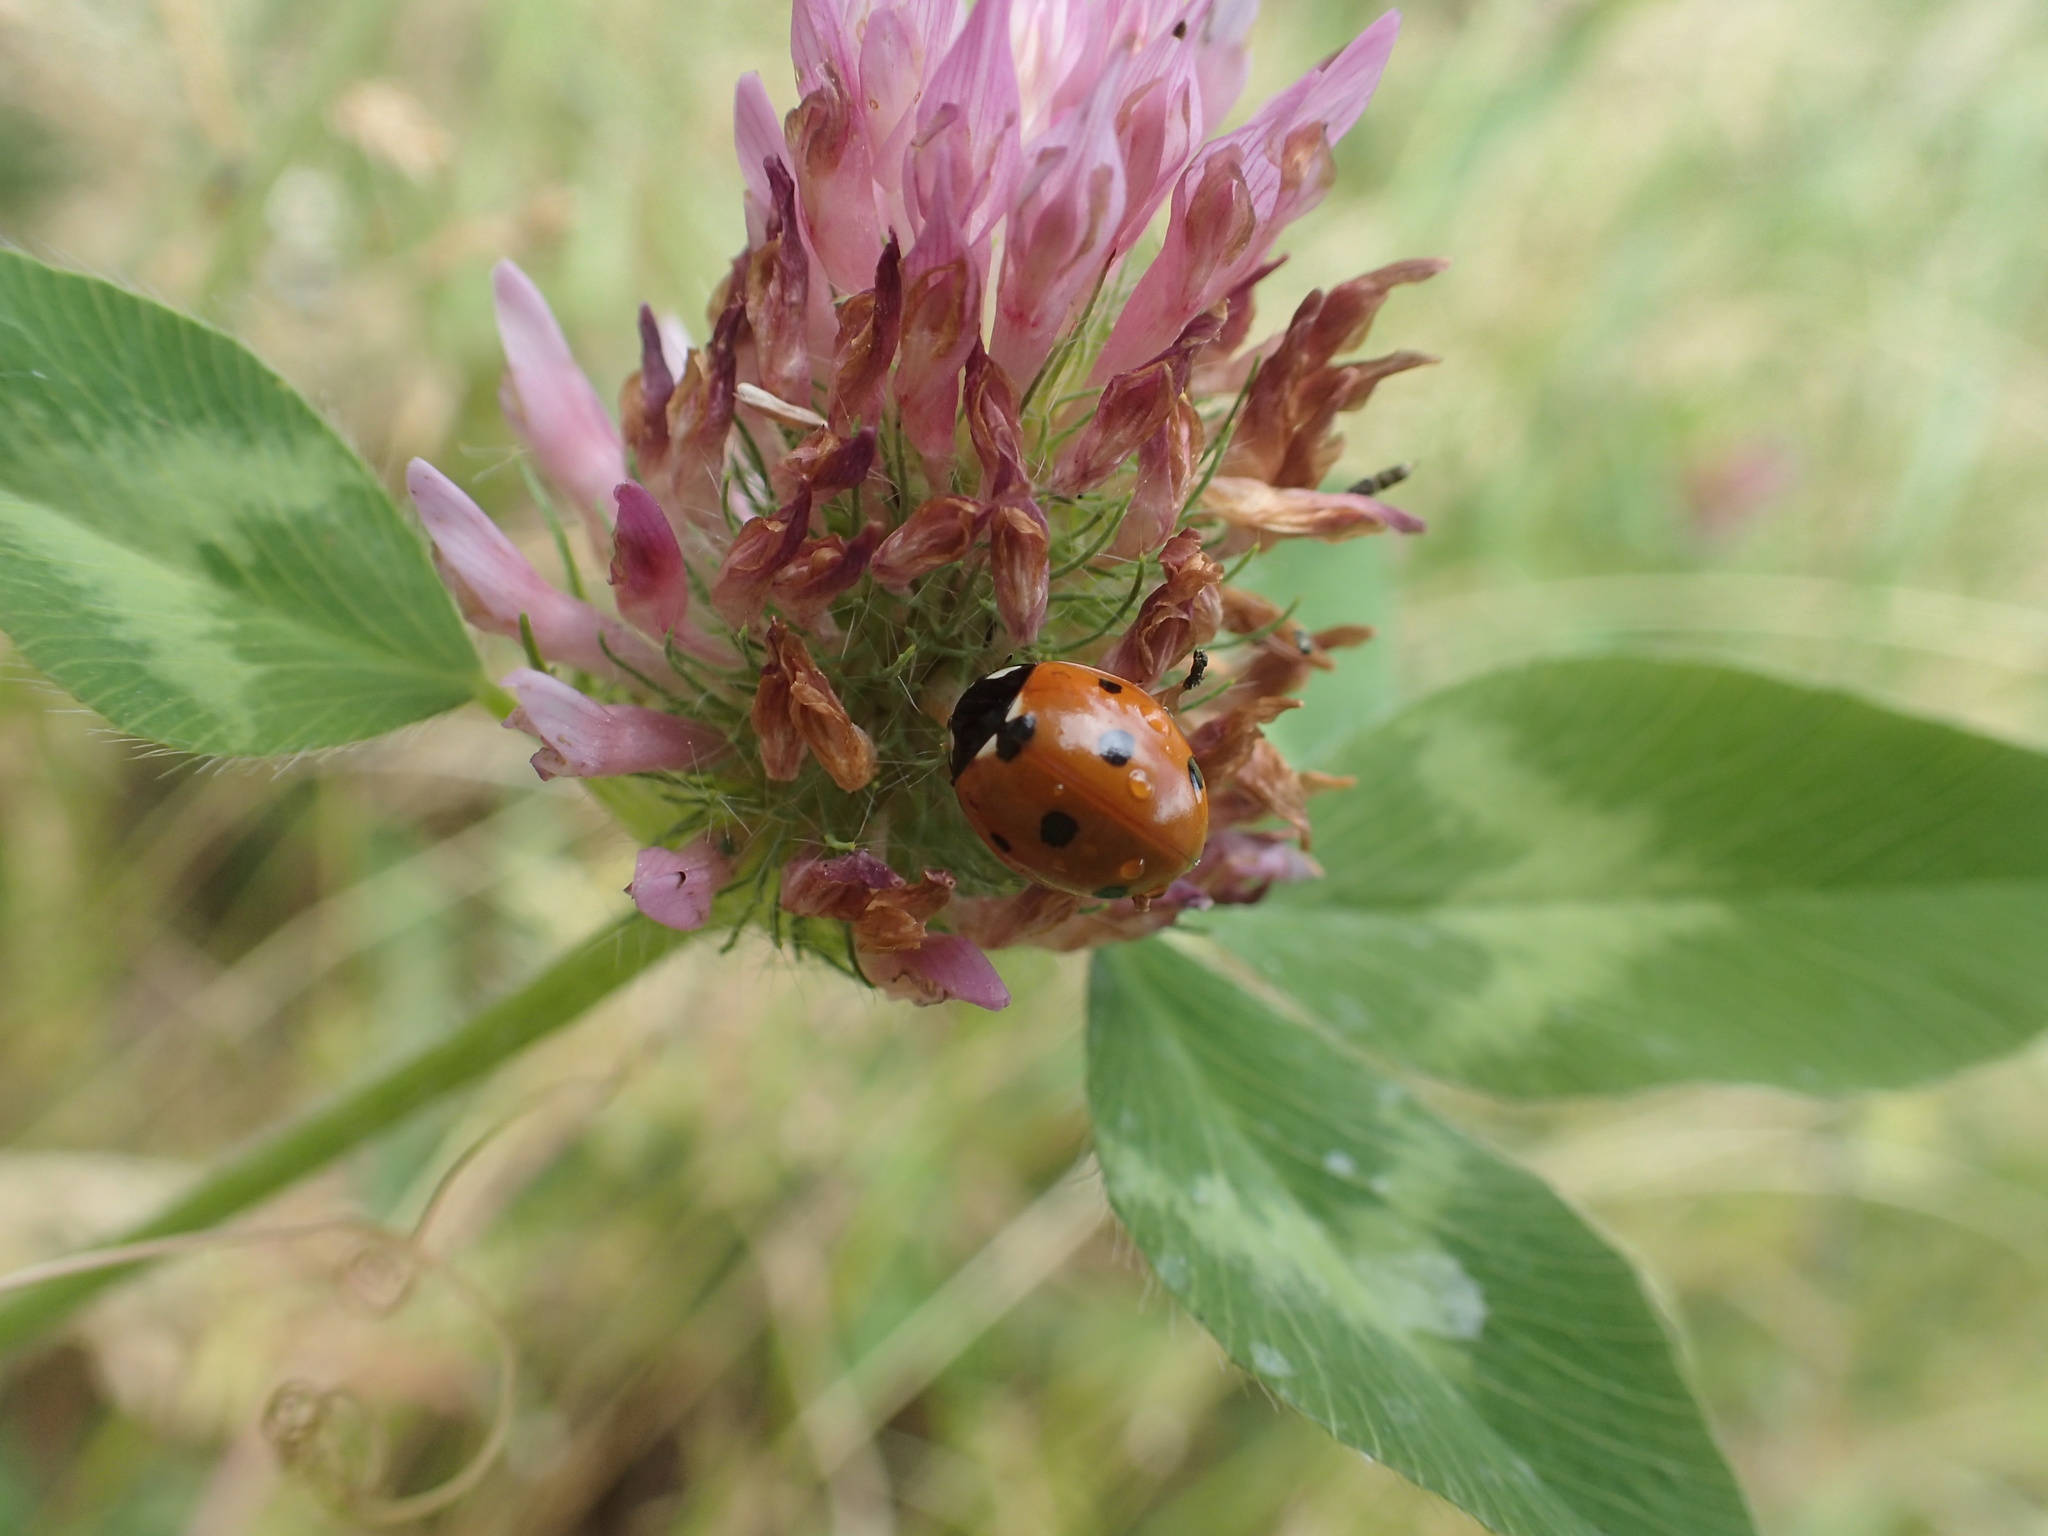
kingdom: Animalia
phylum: Arthropoda
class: Insecta
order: Coleoptera
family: Coccinellidae
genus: Coccinella
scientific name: Coccinella septempunctata
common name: Sevenspotted lady beetle
